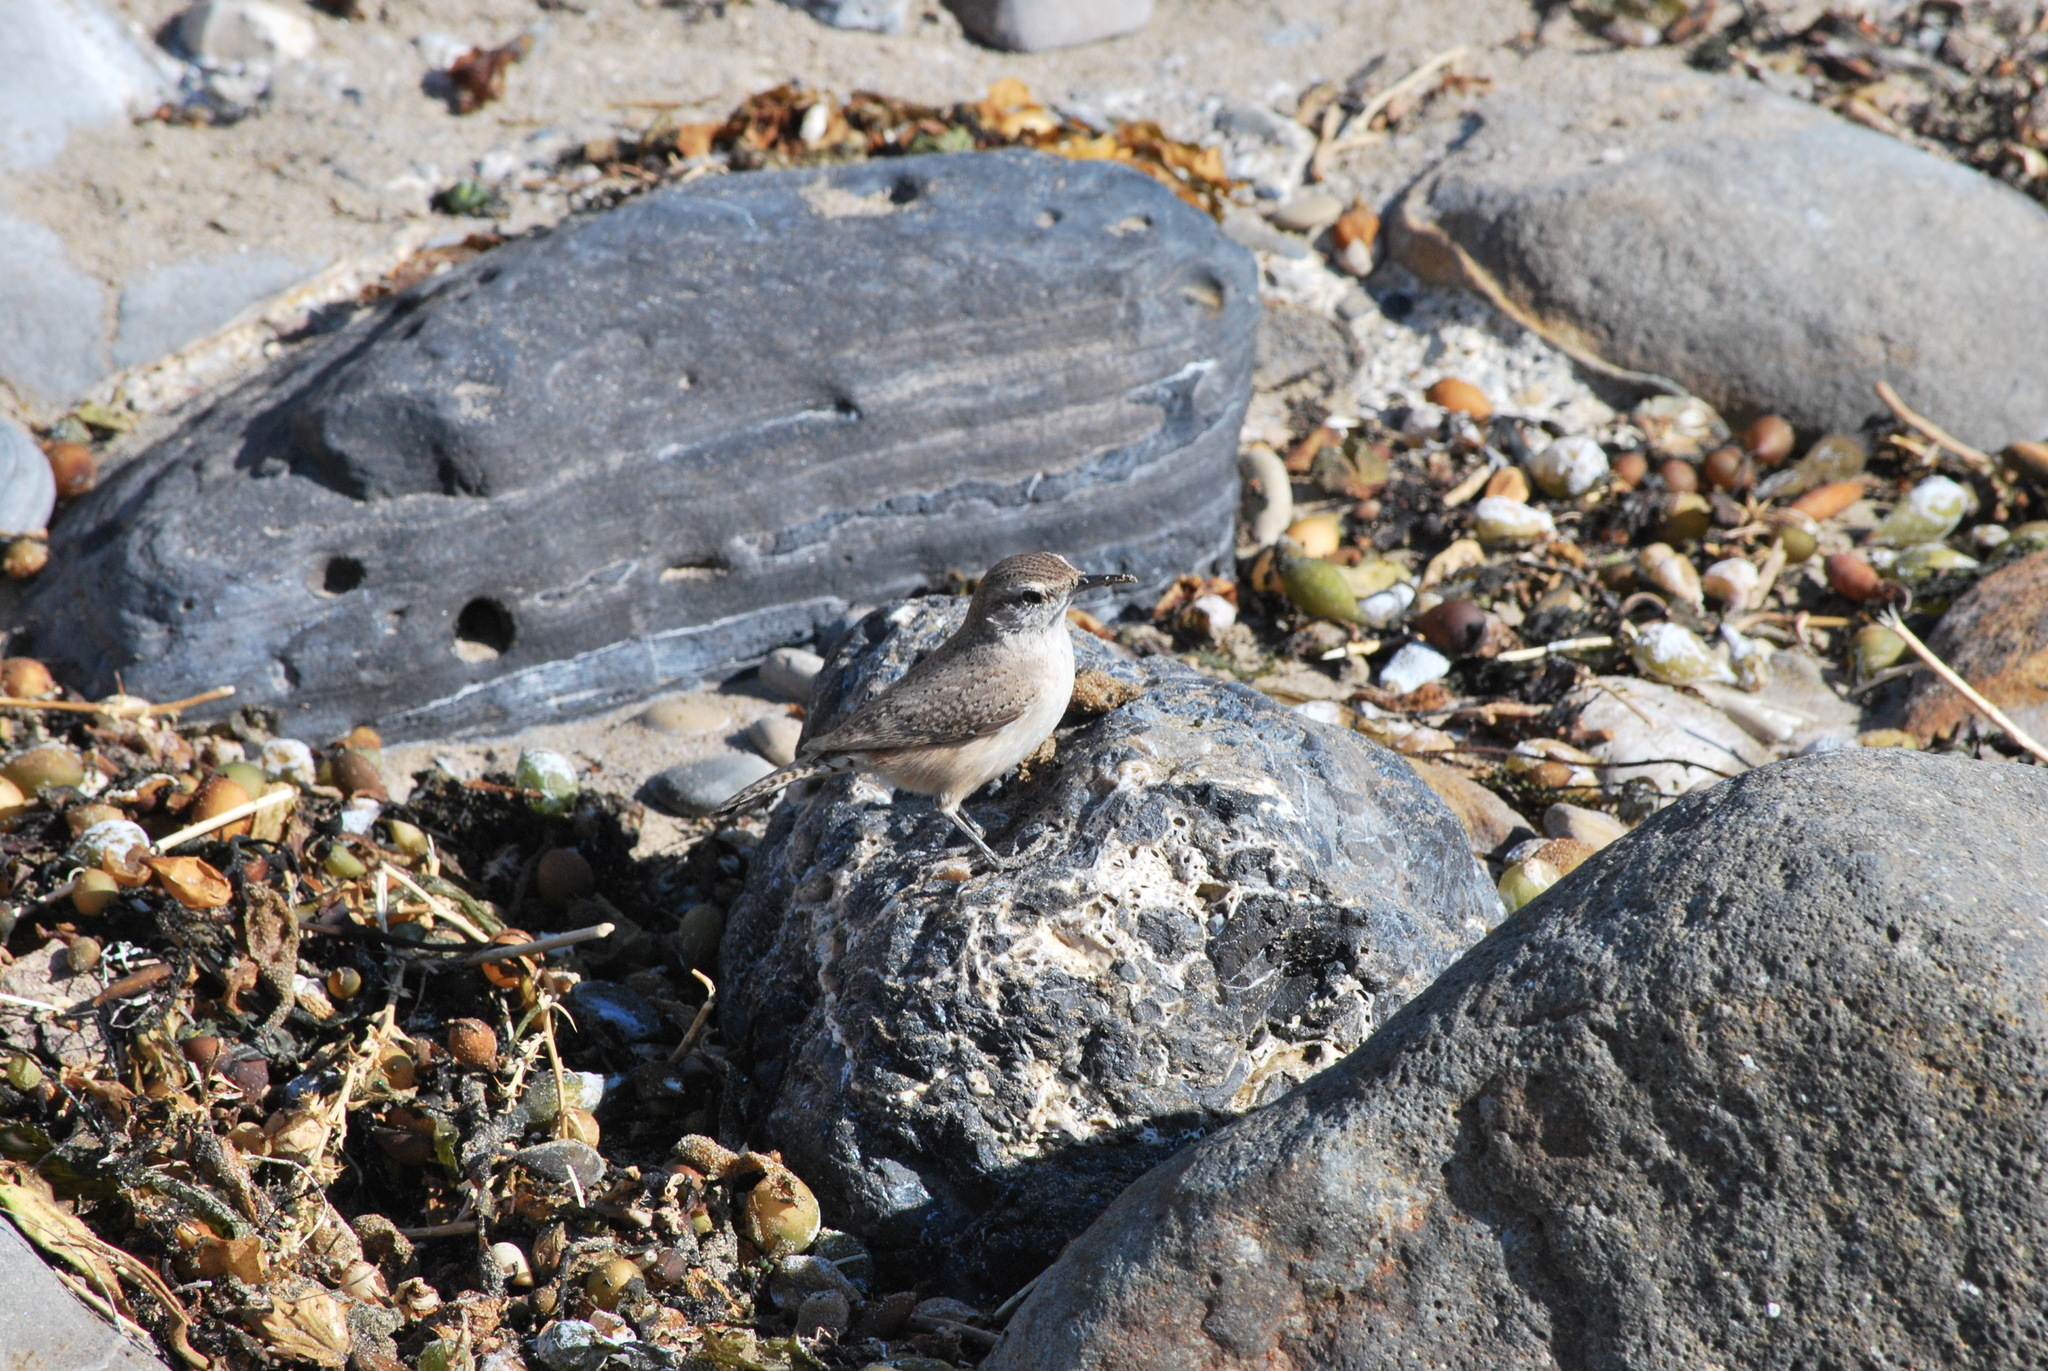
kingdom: Animalia
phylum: Chordata
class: Aves
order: Passeriformes
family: Troglodytidae
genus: Salpinctes
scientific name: Salpinctes obsoletus
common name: Rock wren
